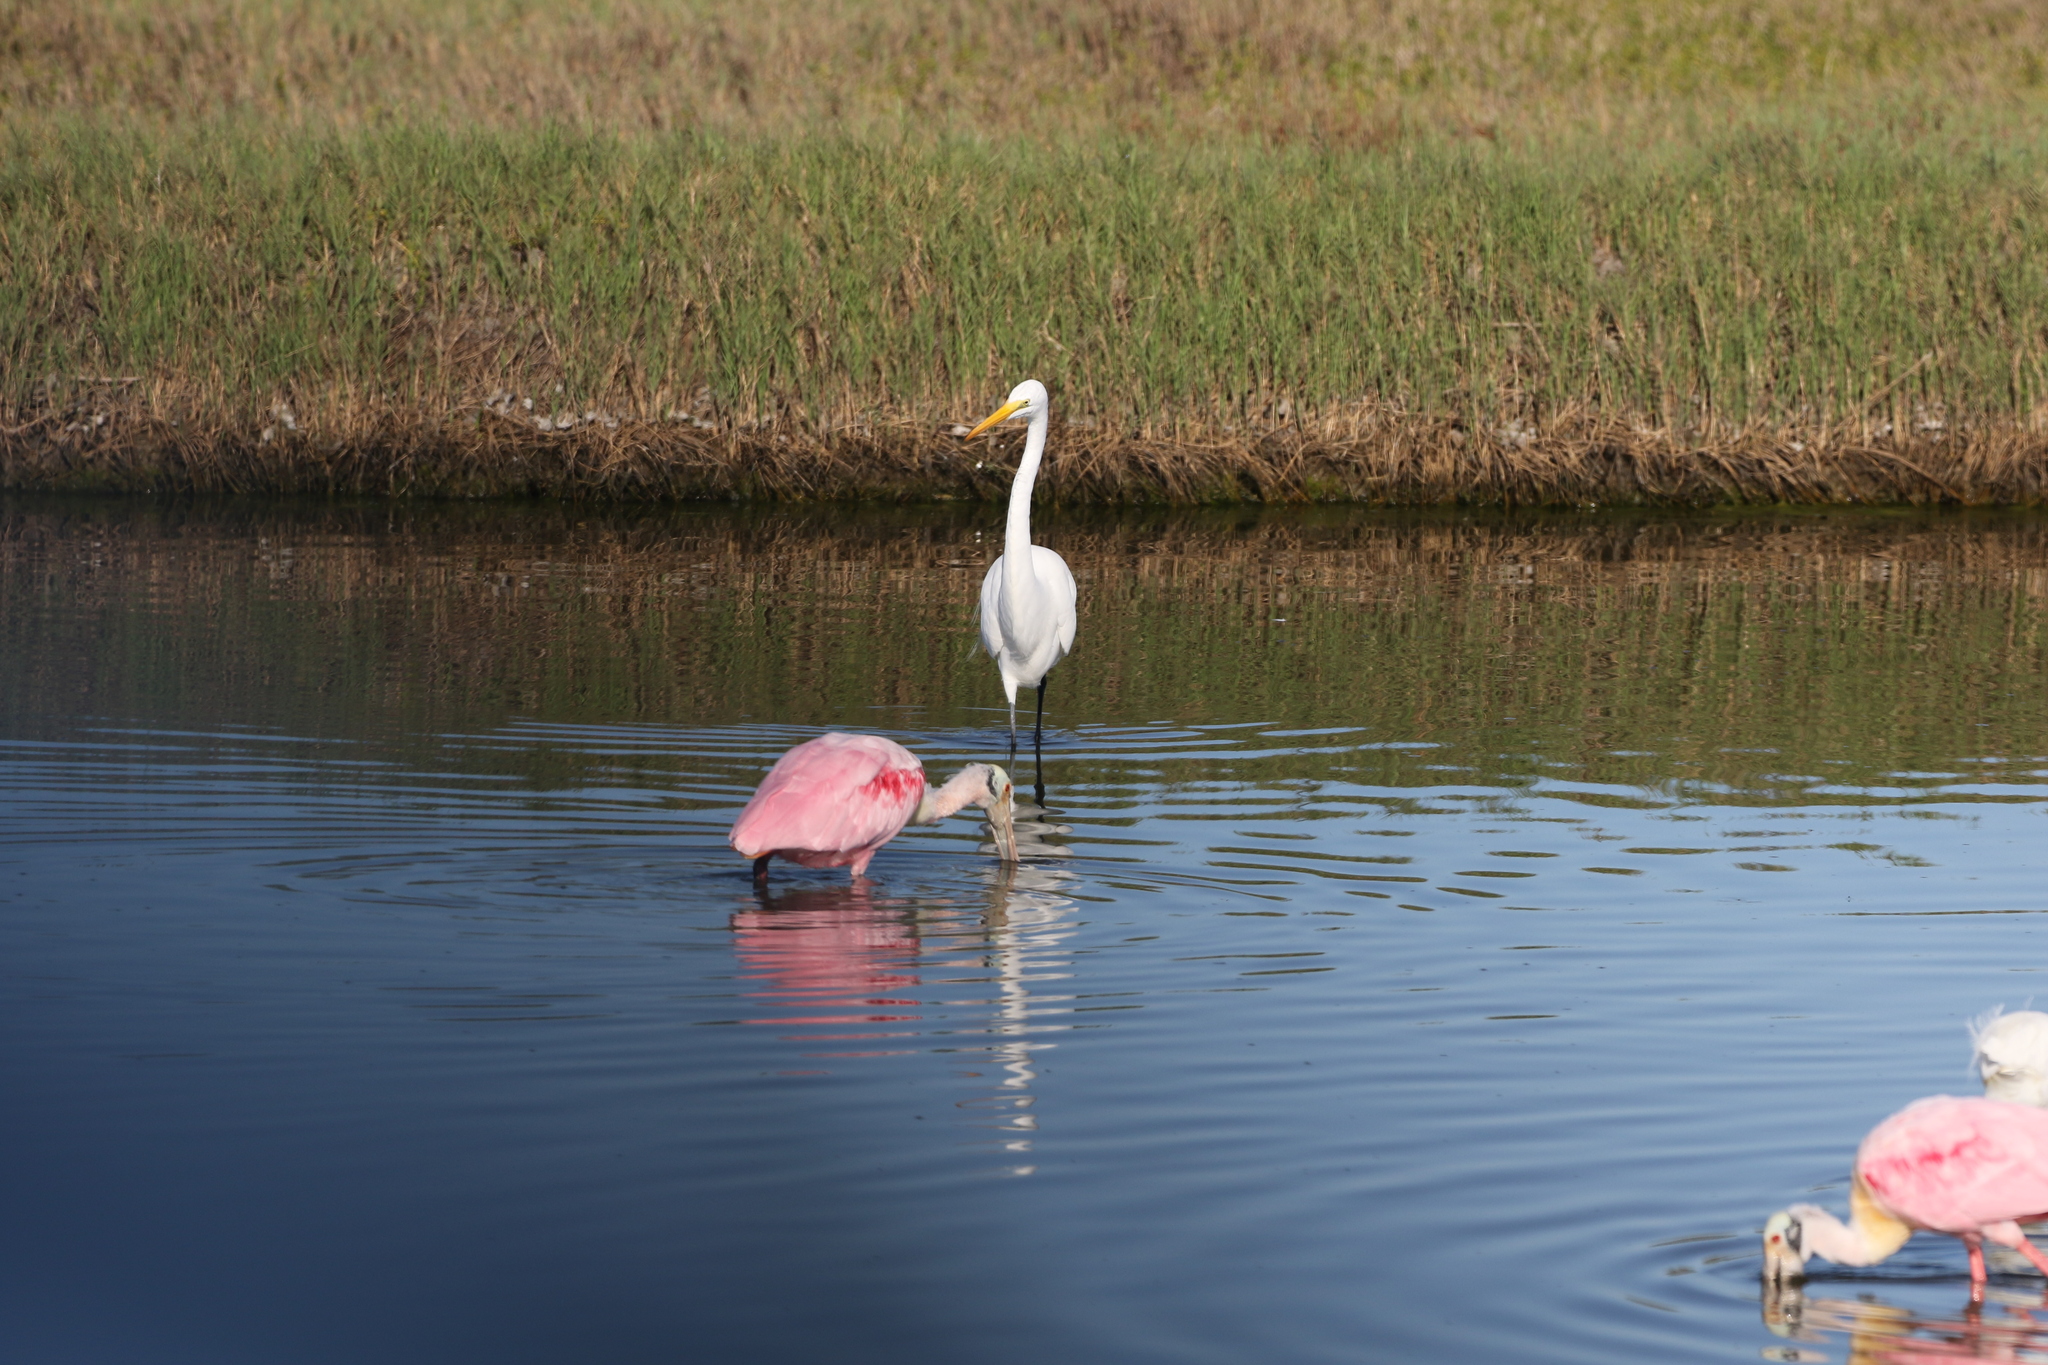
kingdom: Animalia
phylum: Chordata
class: Aves
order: Pelecaniformes
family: Ardeidae
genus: Ardea
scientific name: Ardea alba
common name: Great egret
